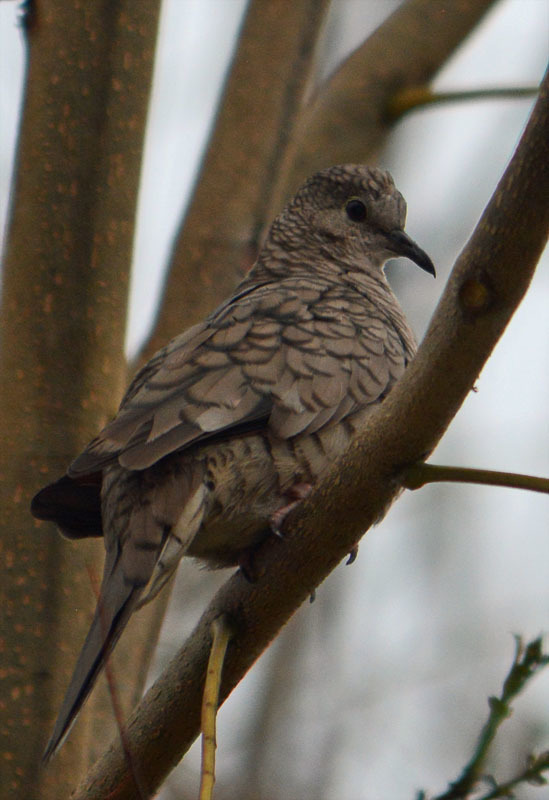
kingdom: Animalia
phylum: Chordata
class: Aves
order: Columbiformes
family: Columbidae
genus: Columbina
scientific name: Columbina inca
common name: Inca dove
